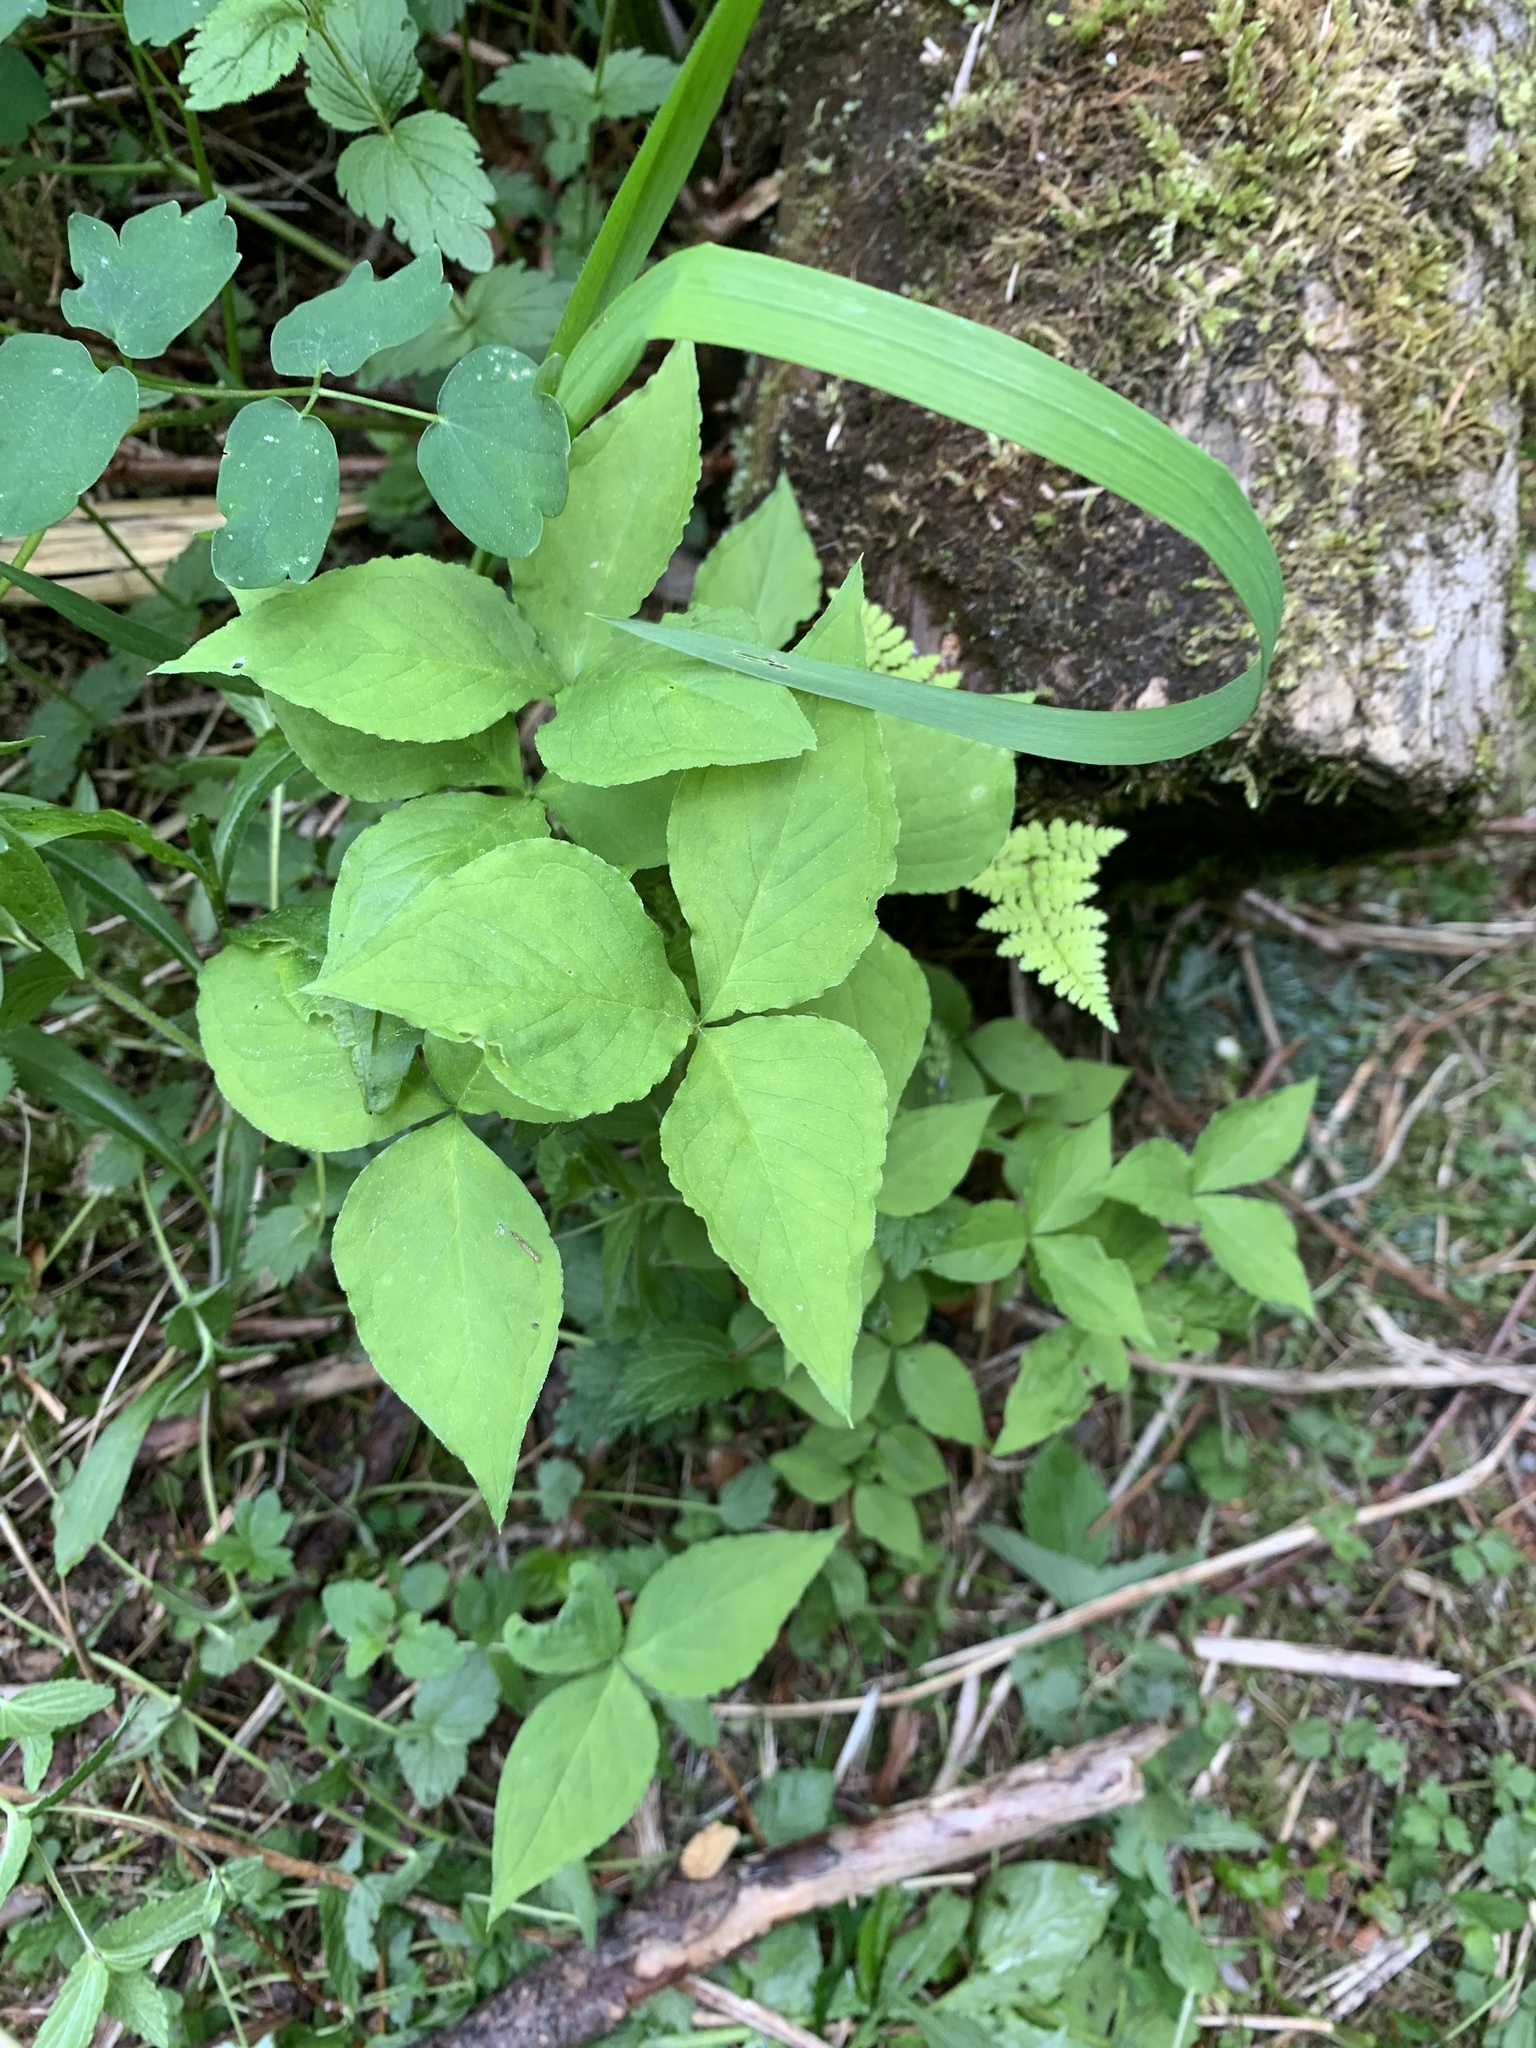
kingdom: Plantae
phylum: Tracheophyta
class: Liliopsida
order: Alismatales
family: Araceae
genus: Arisaema
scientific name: Arisaema triphyllum
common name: Jack-in-the-pulpit
